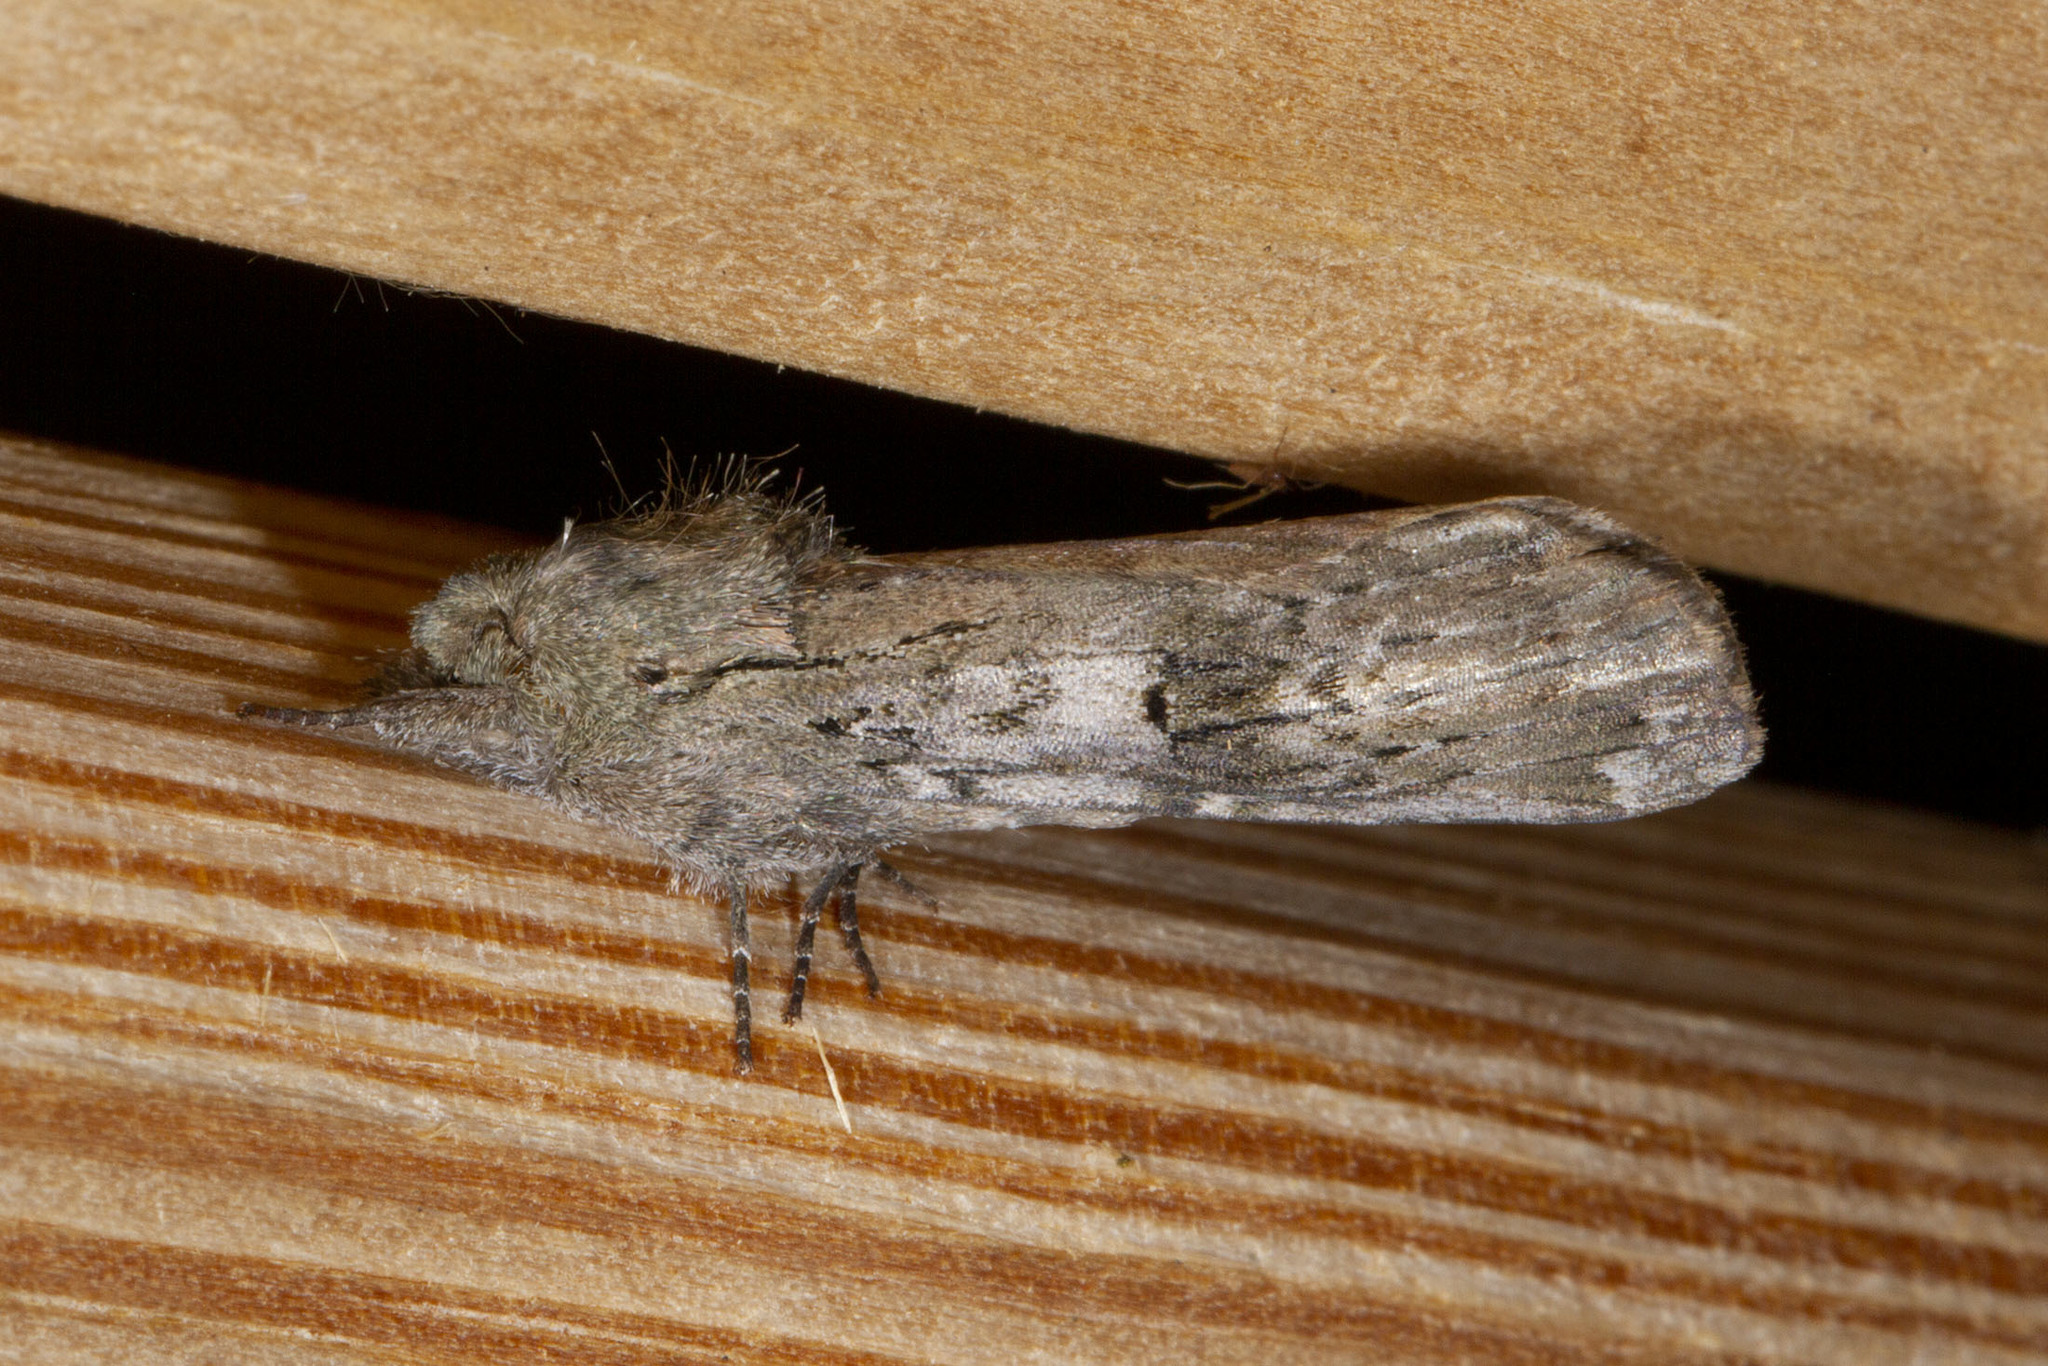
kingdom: Animalia
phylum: Arthropoda
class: Insecta
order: Lepidoptera
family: Notodontidae
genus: Schizura
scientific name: Schizura
